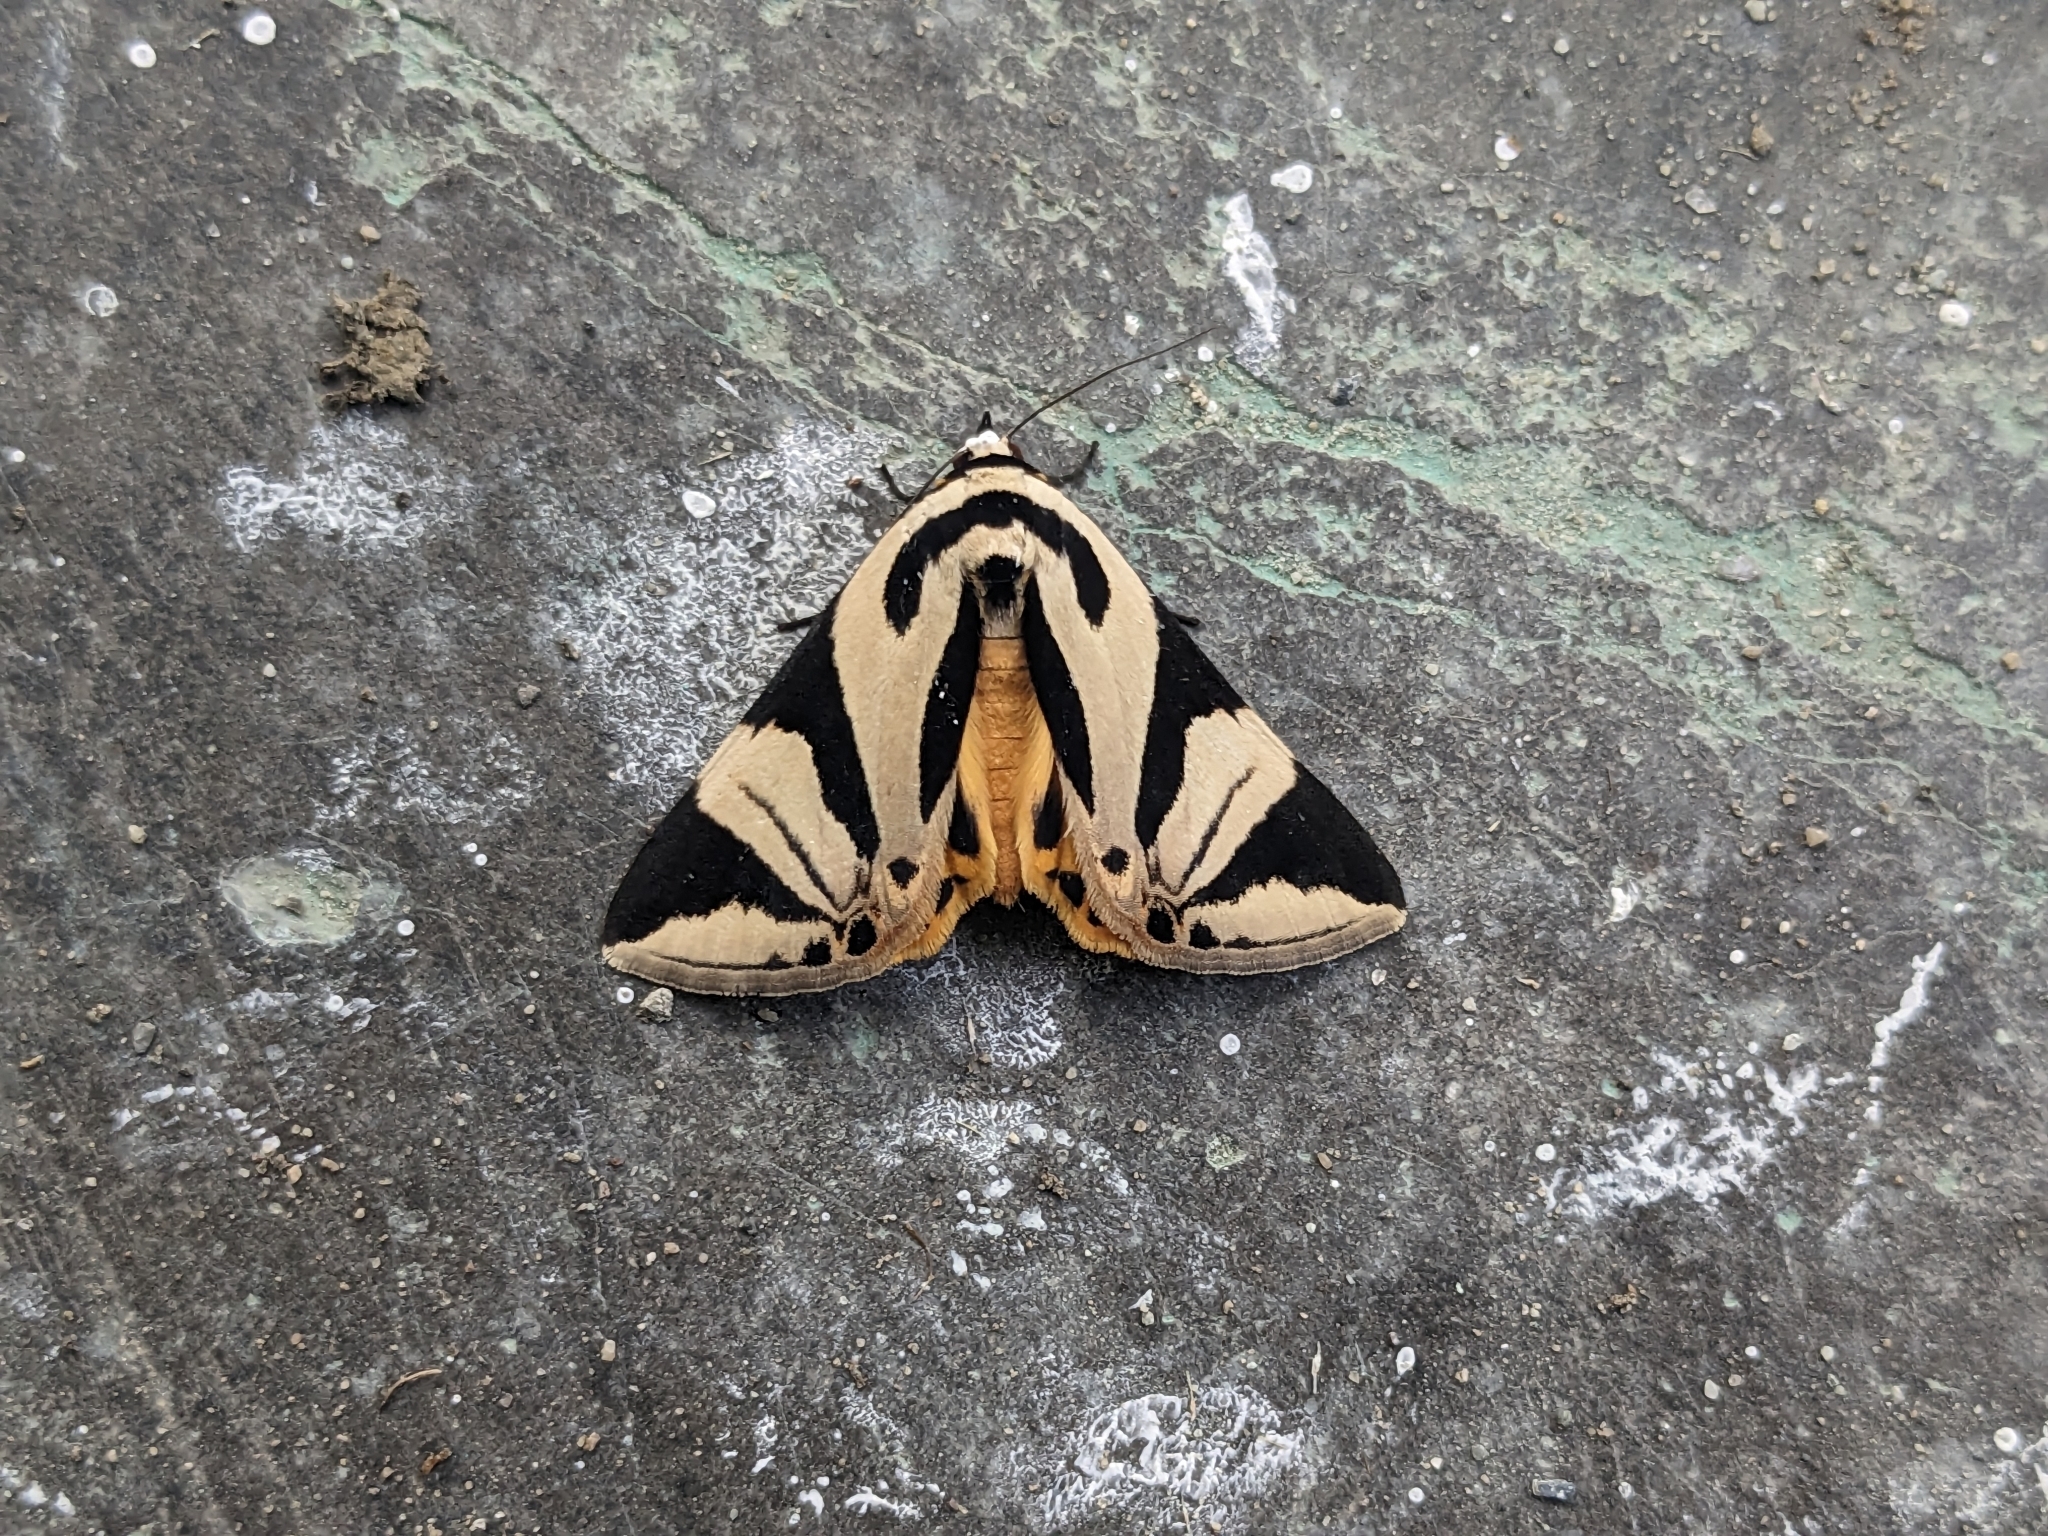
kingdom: Animalia
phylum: Arthropoda
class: Insecta
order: Lepidoptera
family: Erebidae
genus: Attatha
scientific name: Attatha regalis
